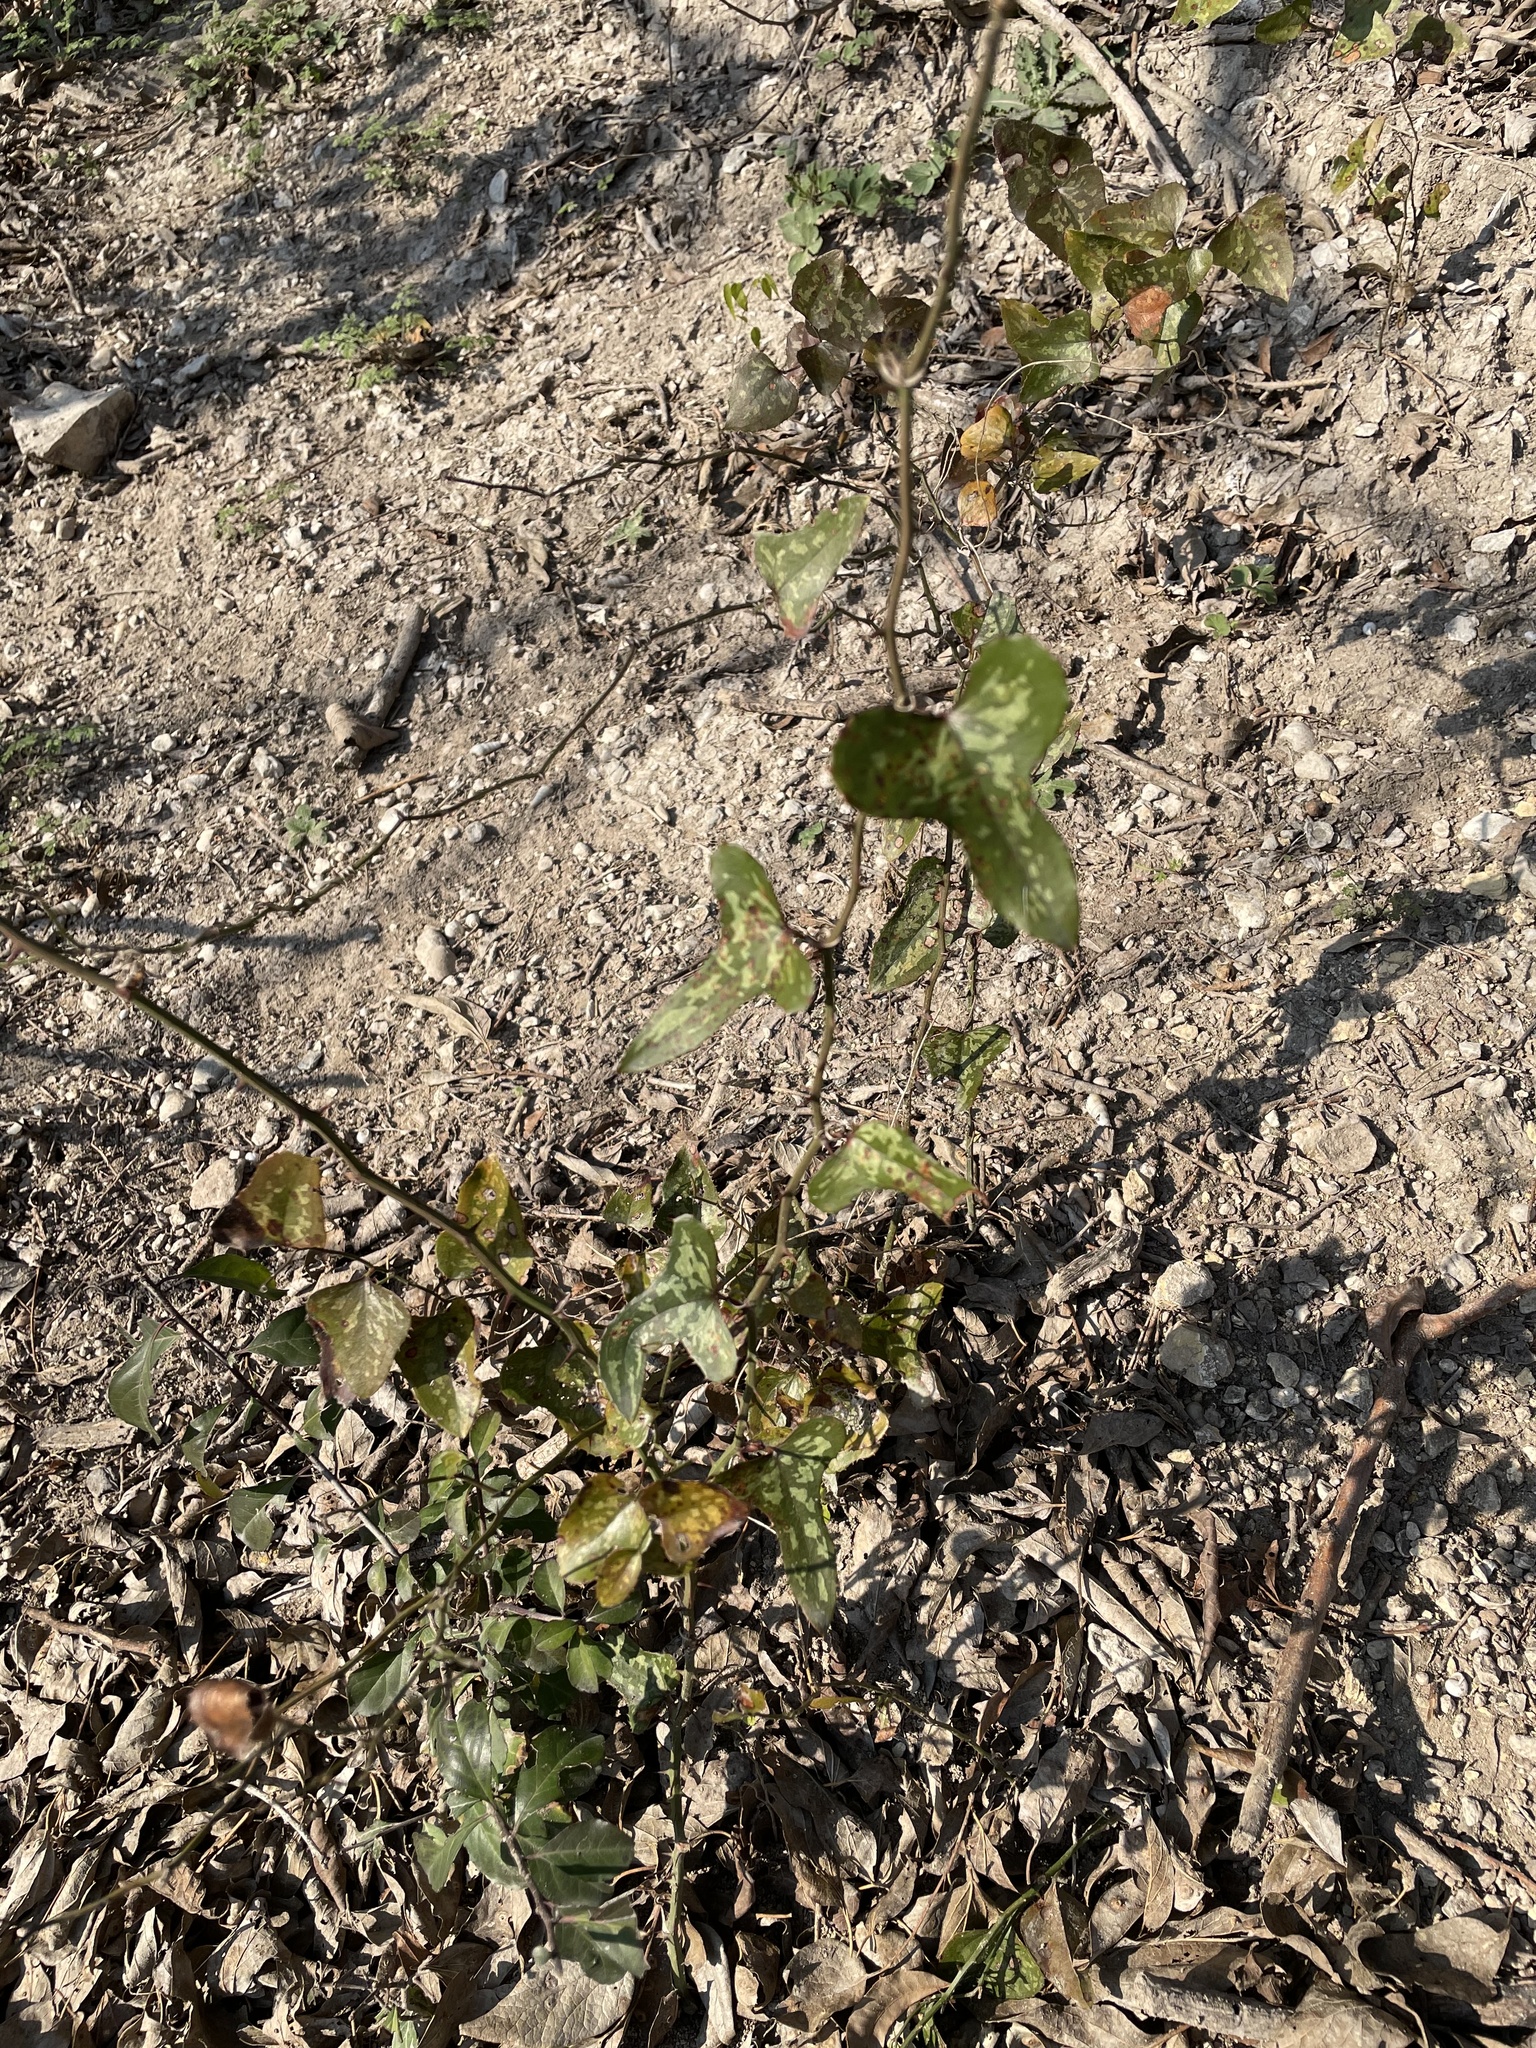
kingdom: Plantae
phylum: Tracheophyta
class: Liliopsida
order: Liliales
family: Smilacaceae
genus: Smilax
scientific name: Smilax bona-nox
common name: Catbrier
